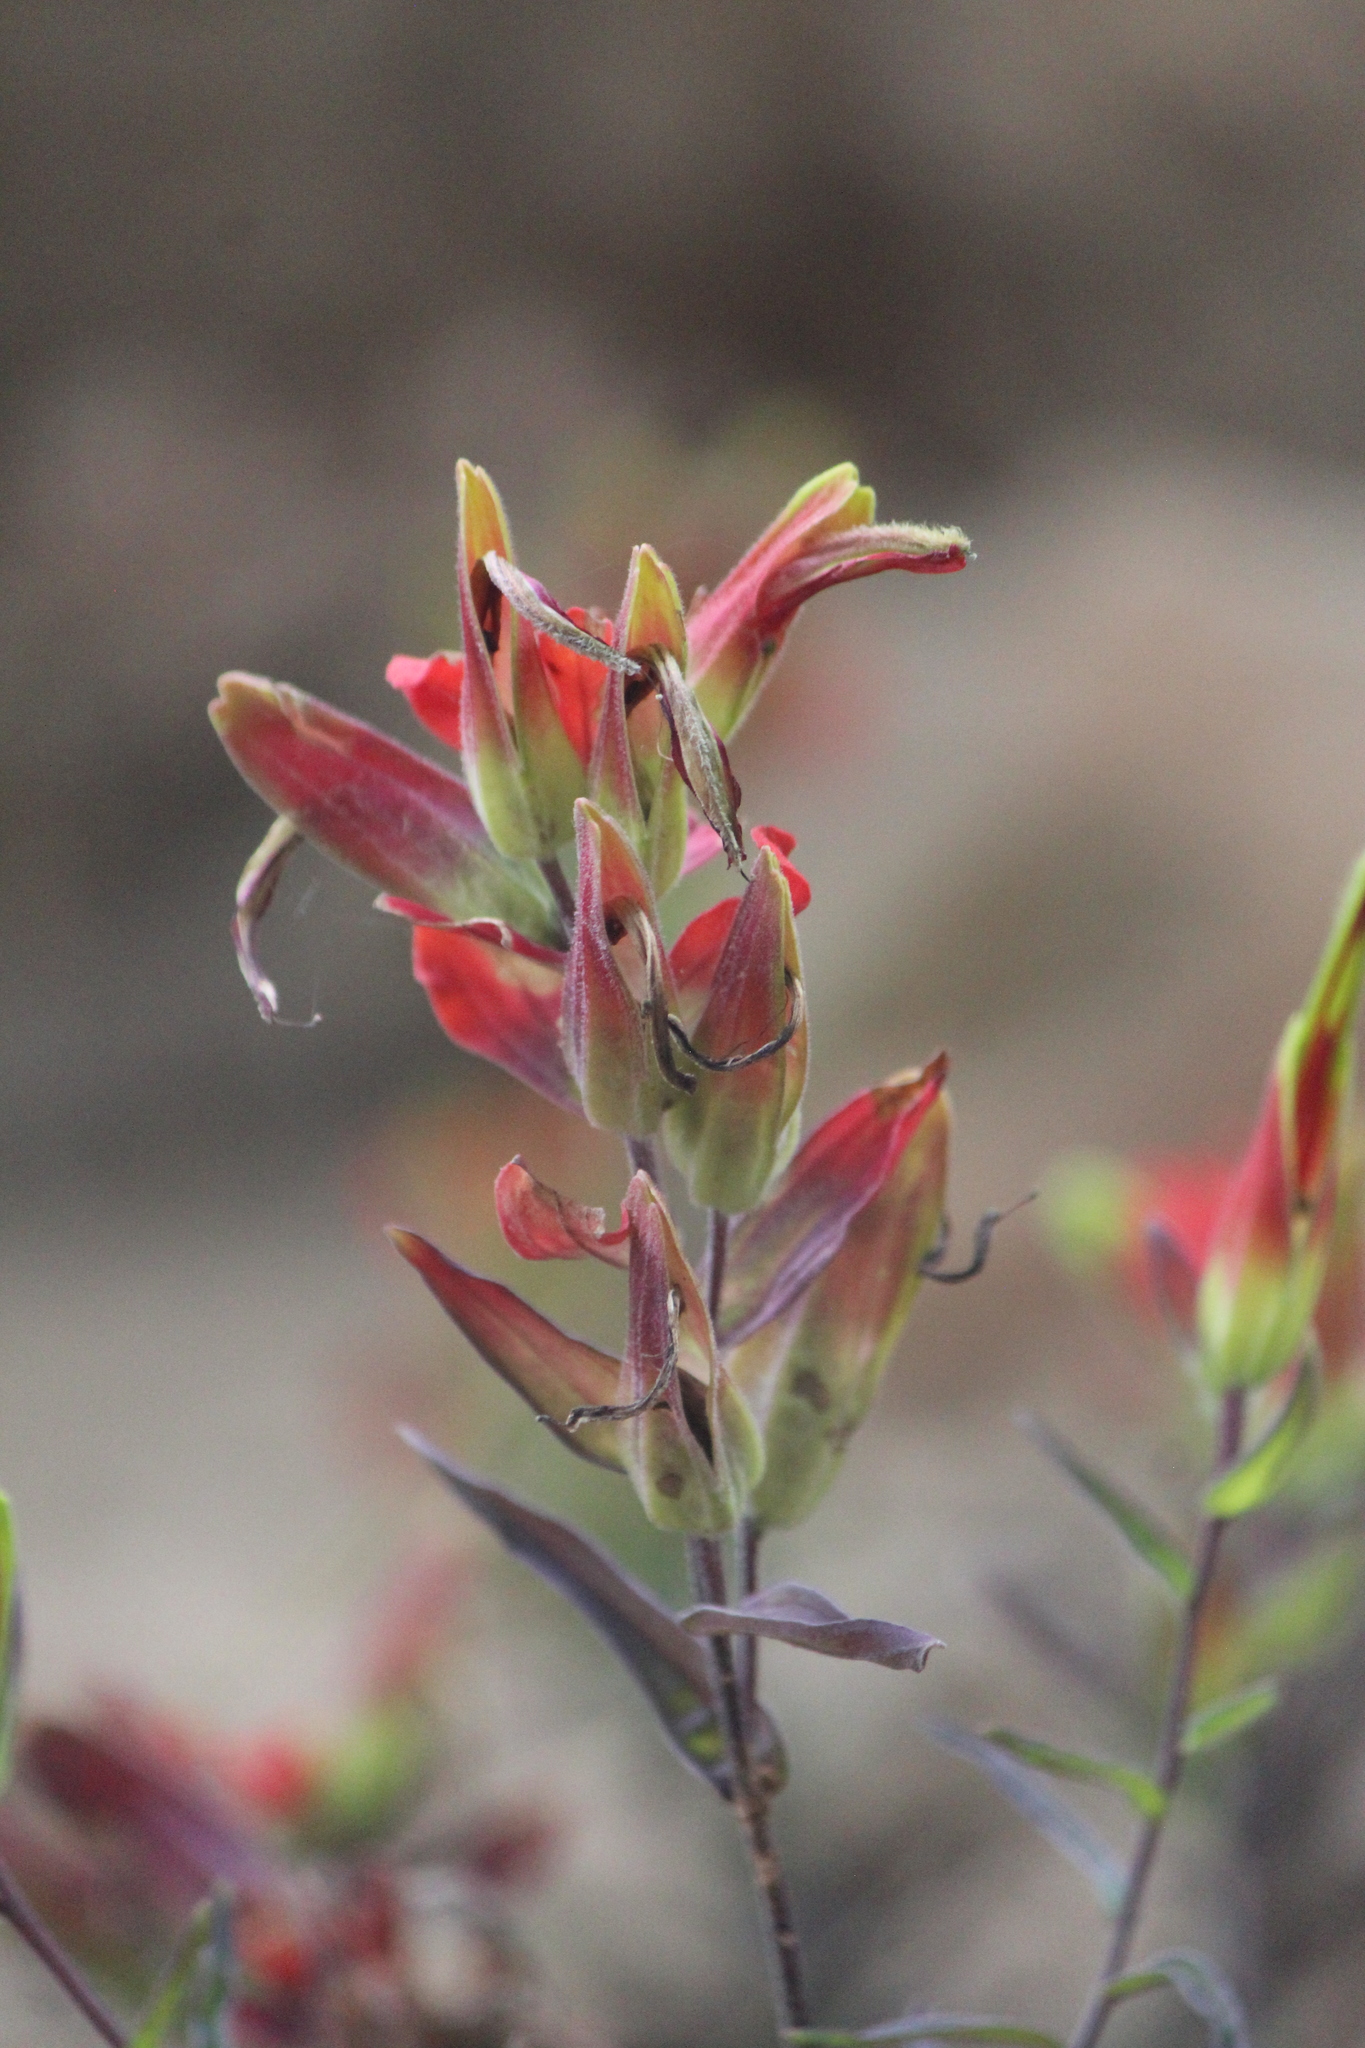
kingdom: Plantae
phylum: Tracheophyta
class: Magnoliopsida
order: Lamiales
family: Orobanchaceae
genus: Castilleja
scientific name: Castilleja integrifolia
